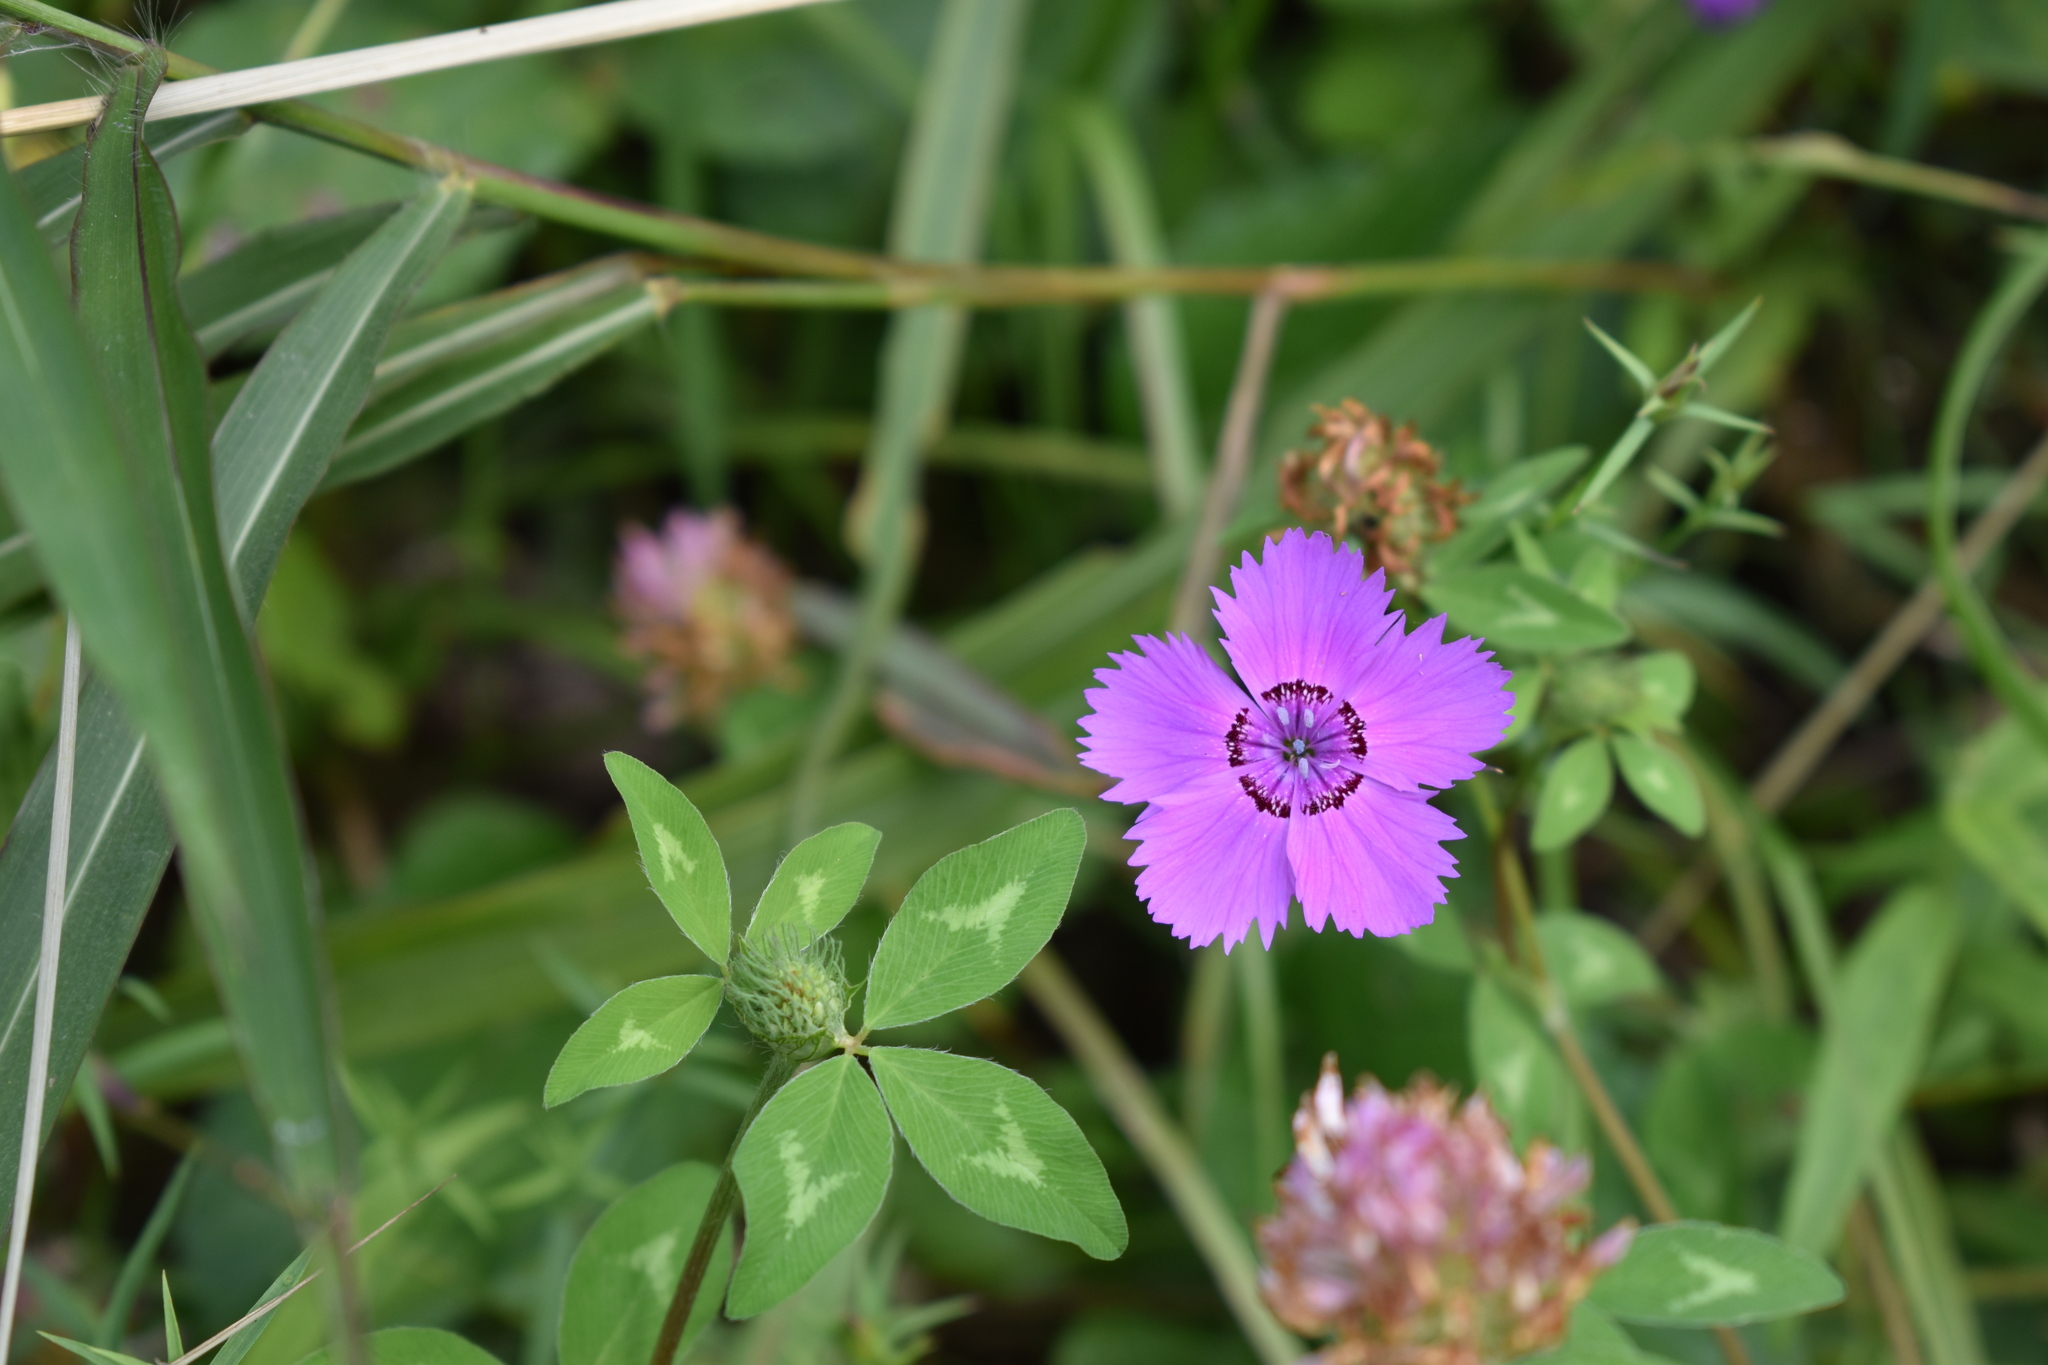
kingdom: Plantae
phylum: Tracheophyta
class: Magnoliopsida
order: Caryophyllales
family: Caryophyllaceae
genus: Dianthus
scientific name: Dianthus chinensis
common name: Rainbow pink
